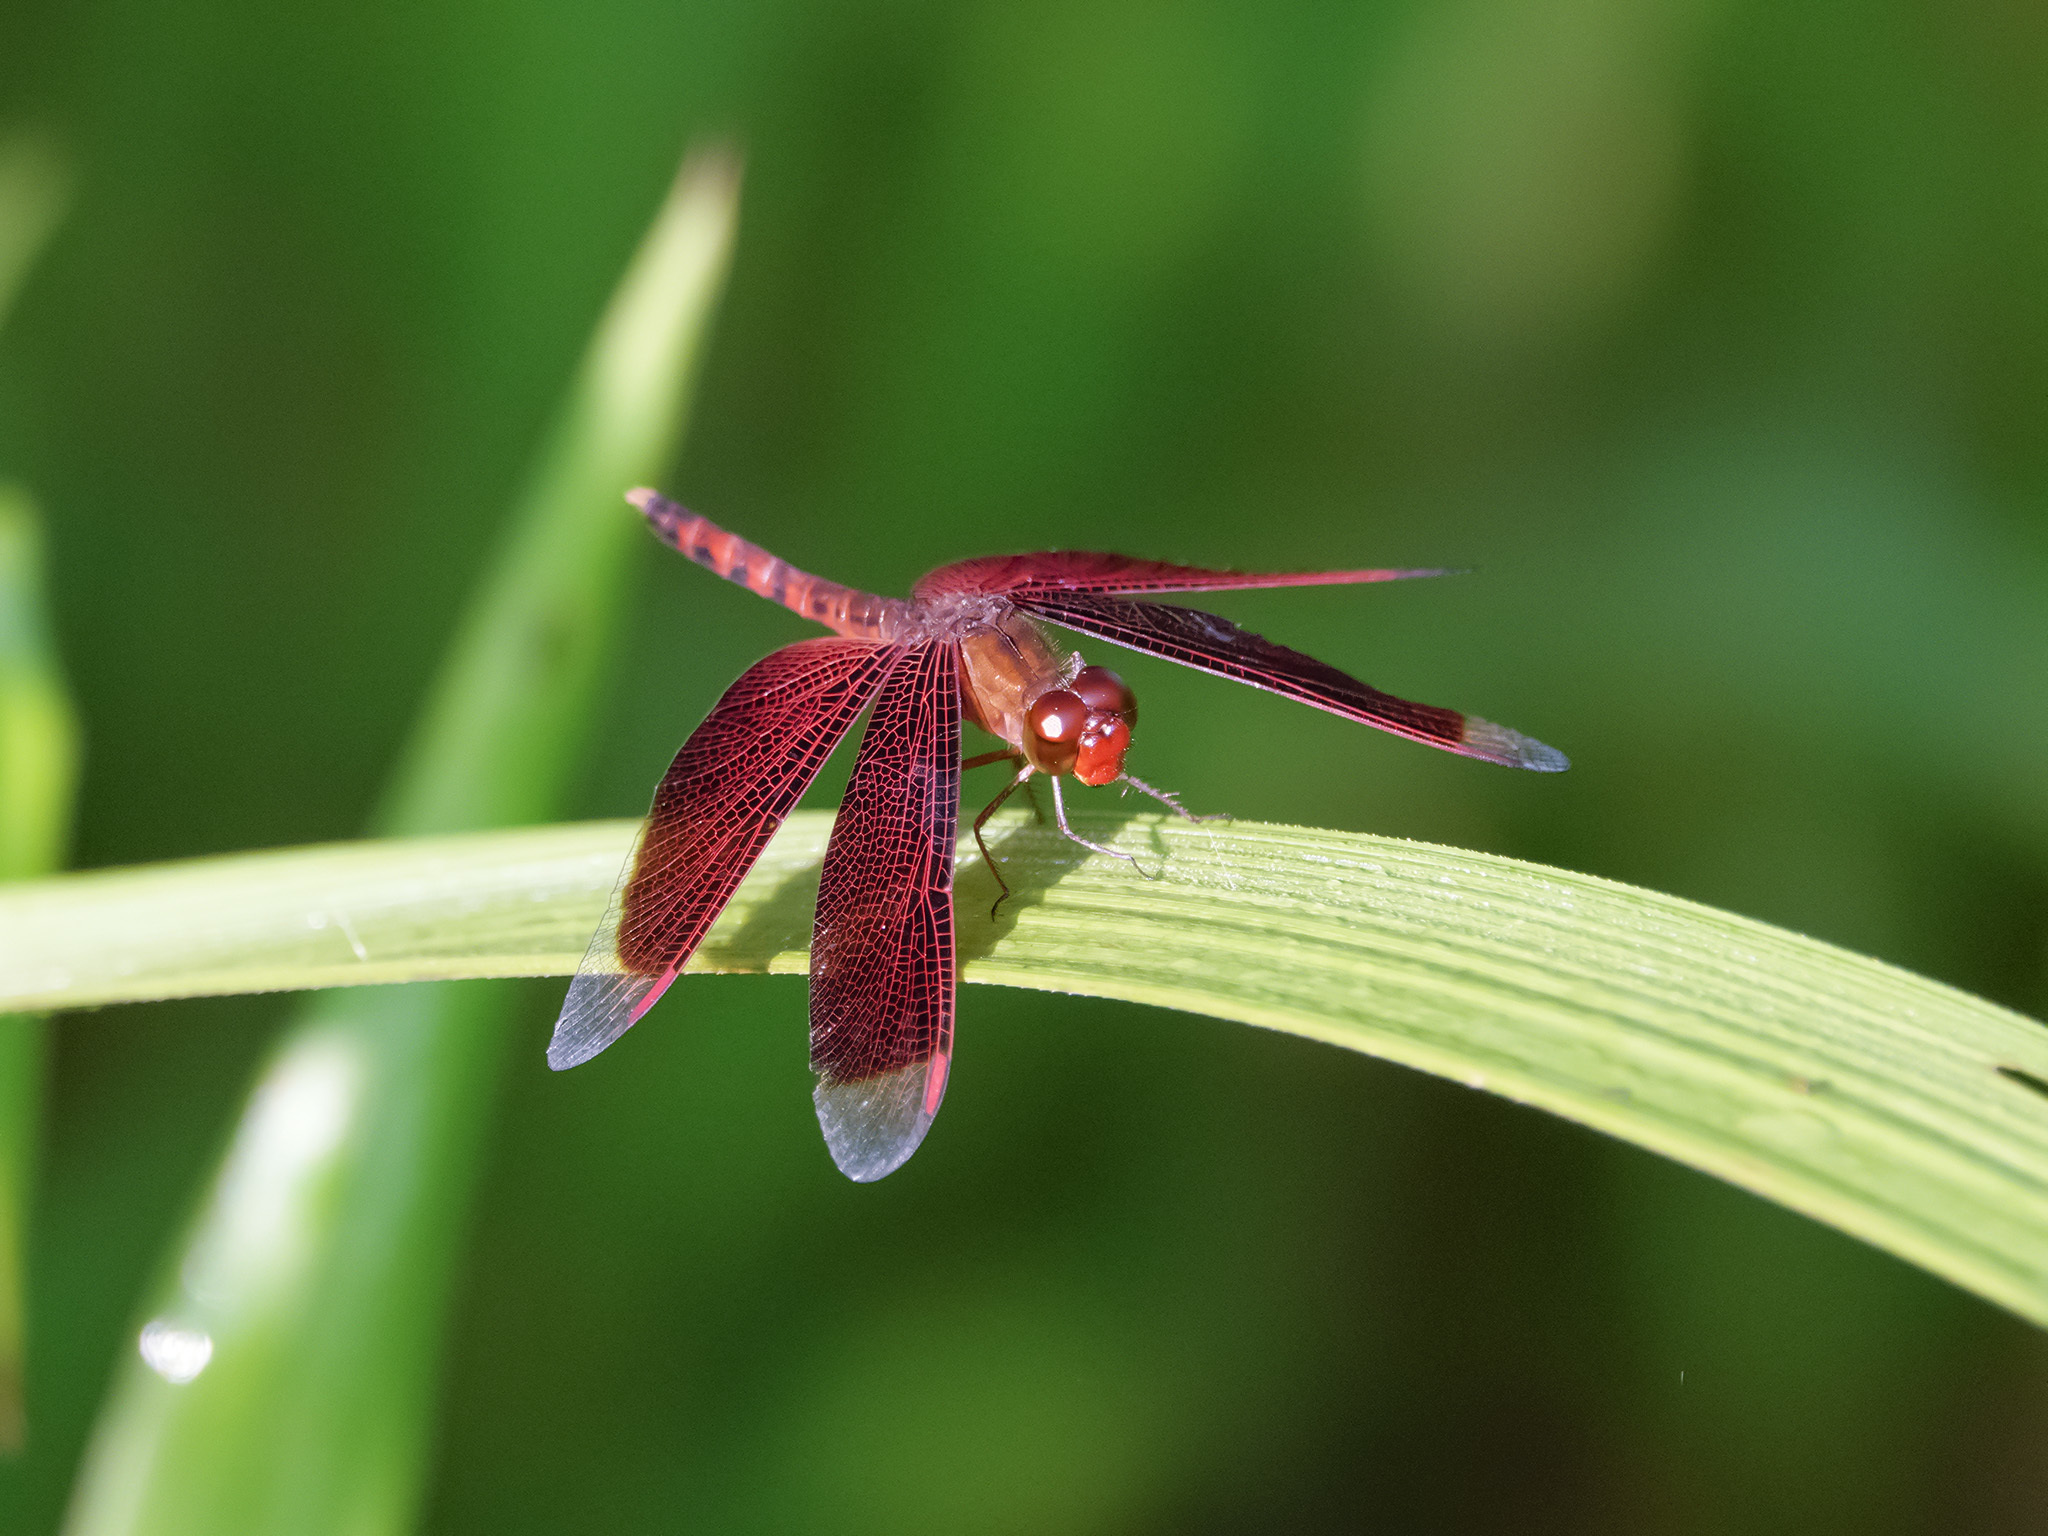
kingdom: Animalia
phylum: Arthropoda
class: Insecta
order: Odonata
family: Libellulidae
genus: Neurothemis
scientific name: Neurothemis fluctuans
